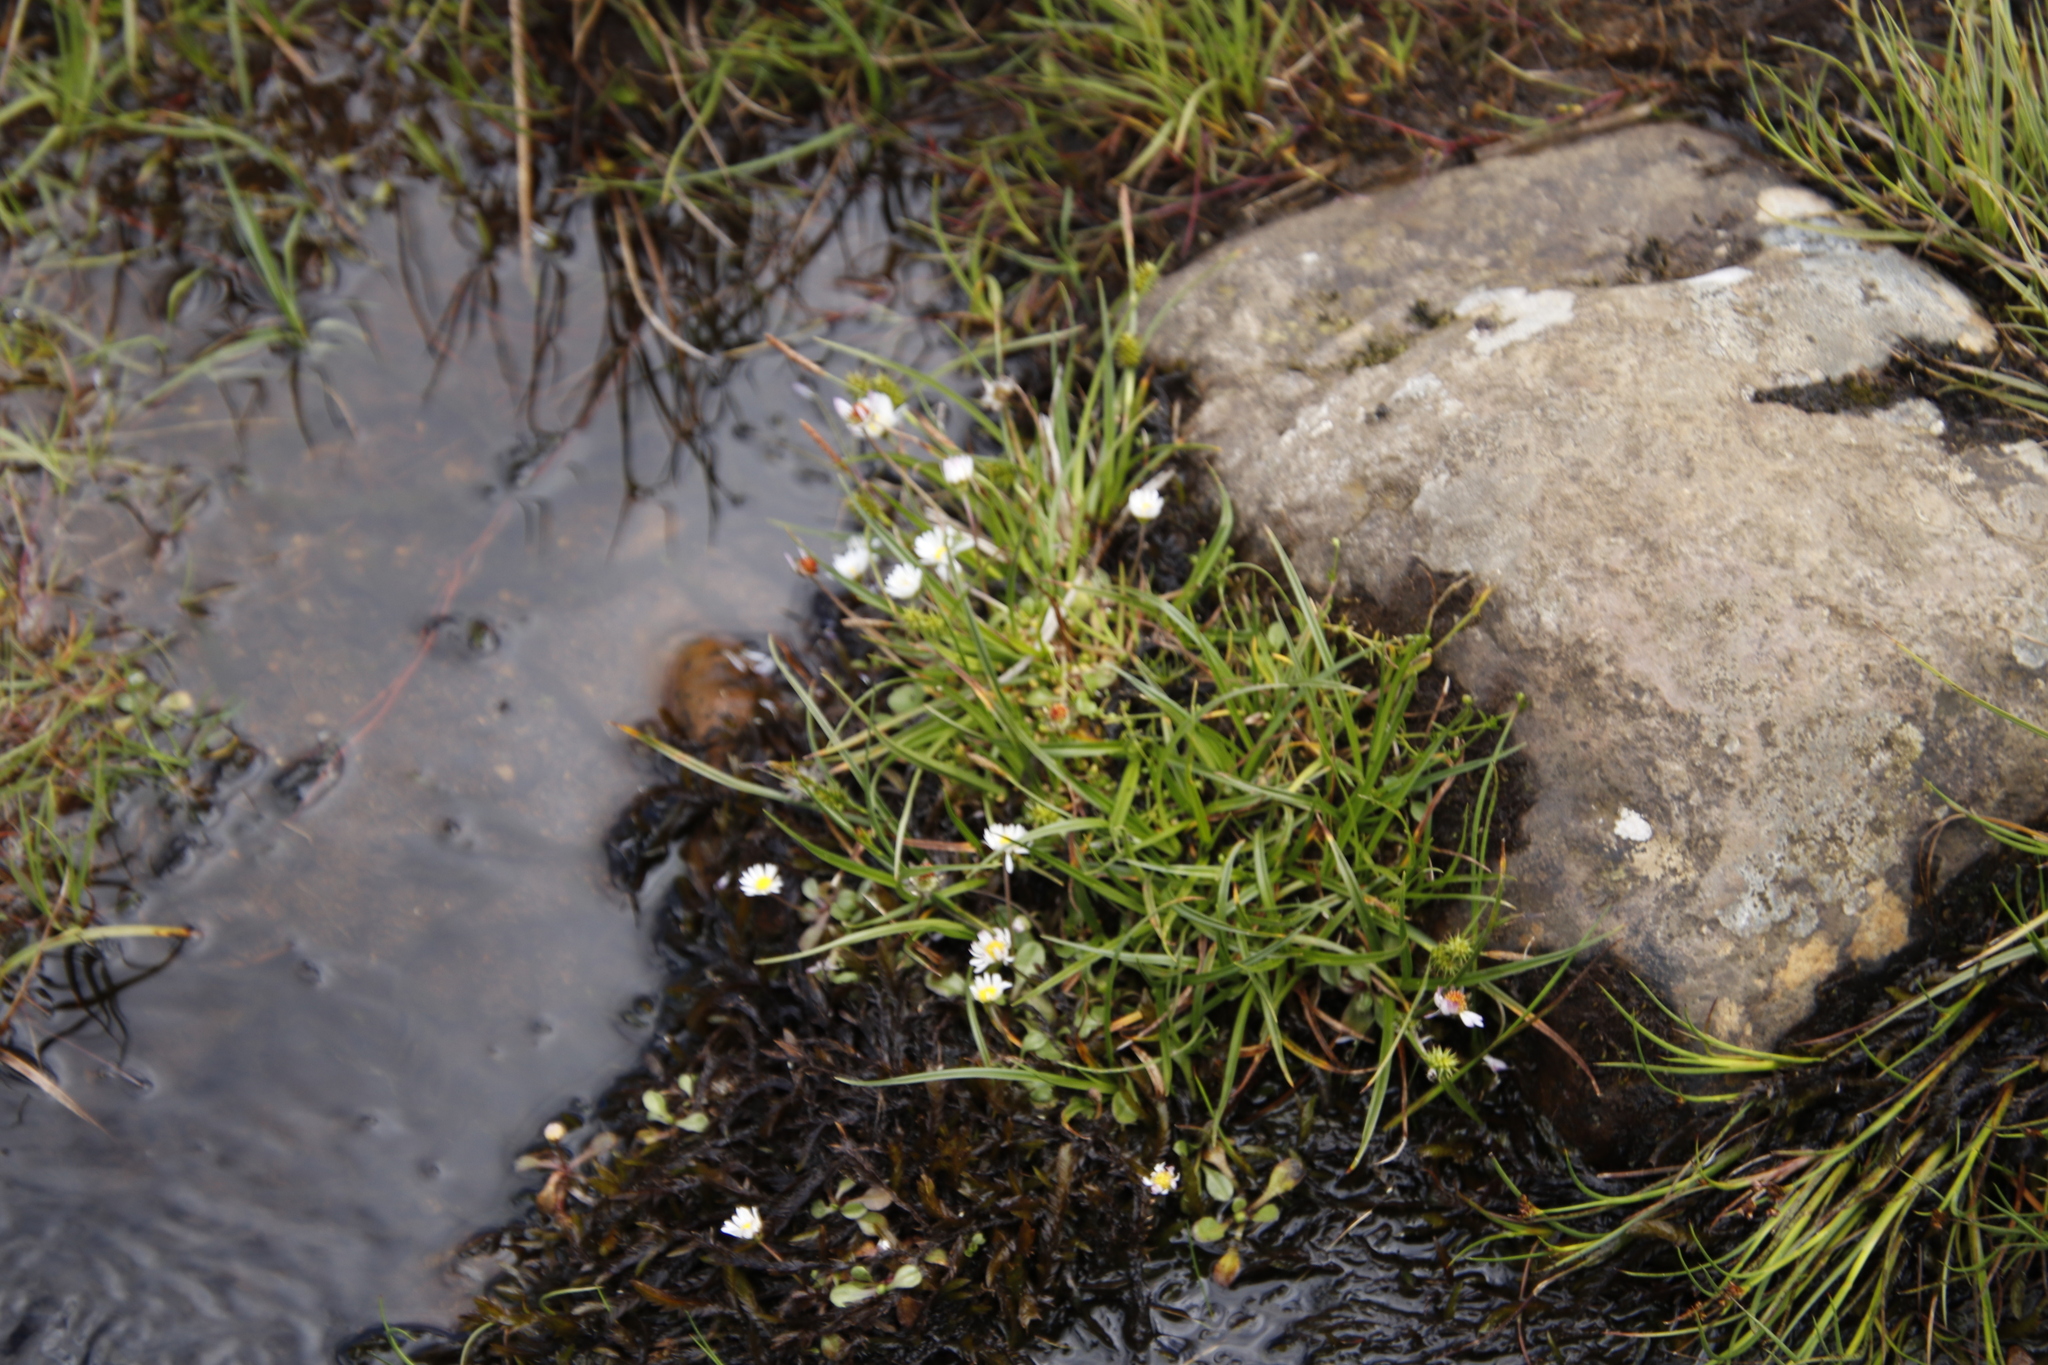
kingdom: Plantae
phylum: Tracheophyta
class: Magnoliopsida
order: Asterales
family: Asteraceae
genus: Bellis
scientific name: Bellis perennis
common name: Lawndaisy
